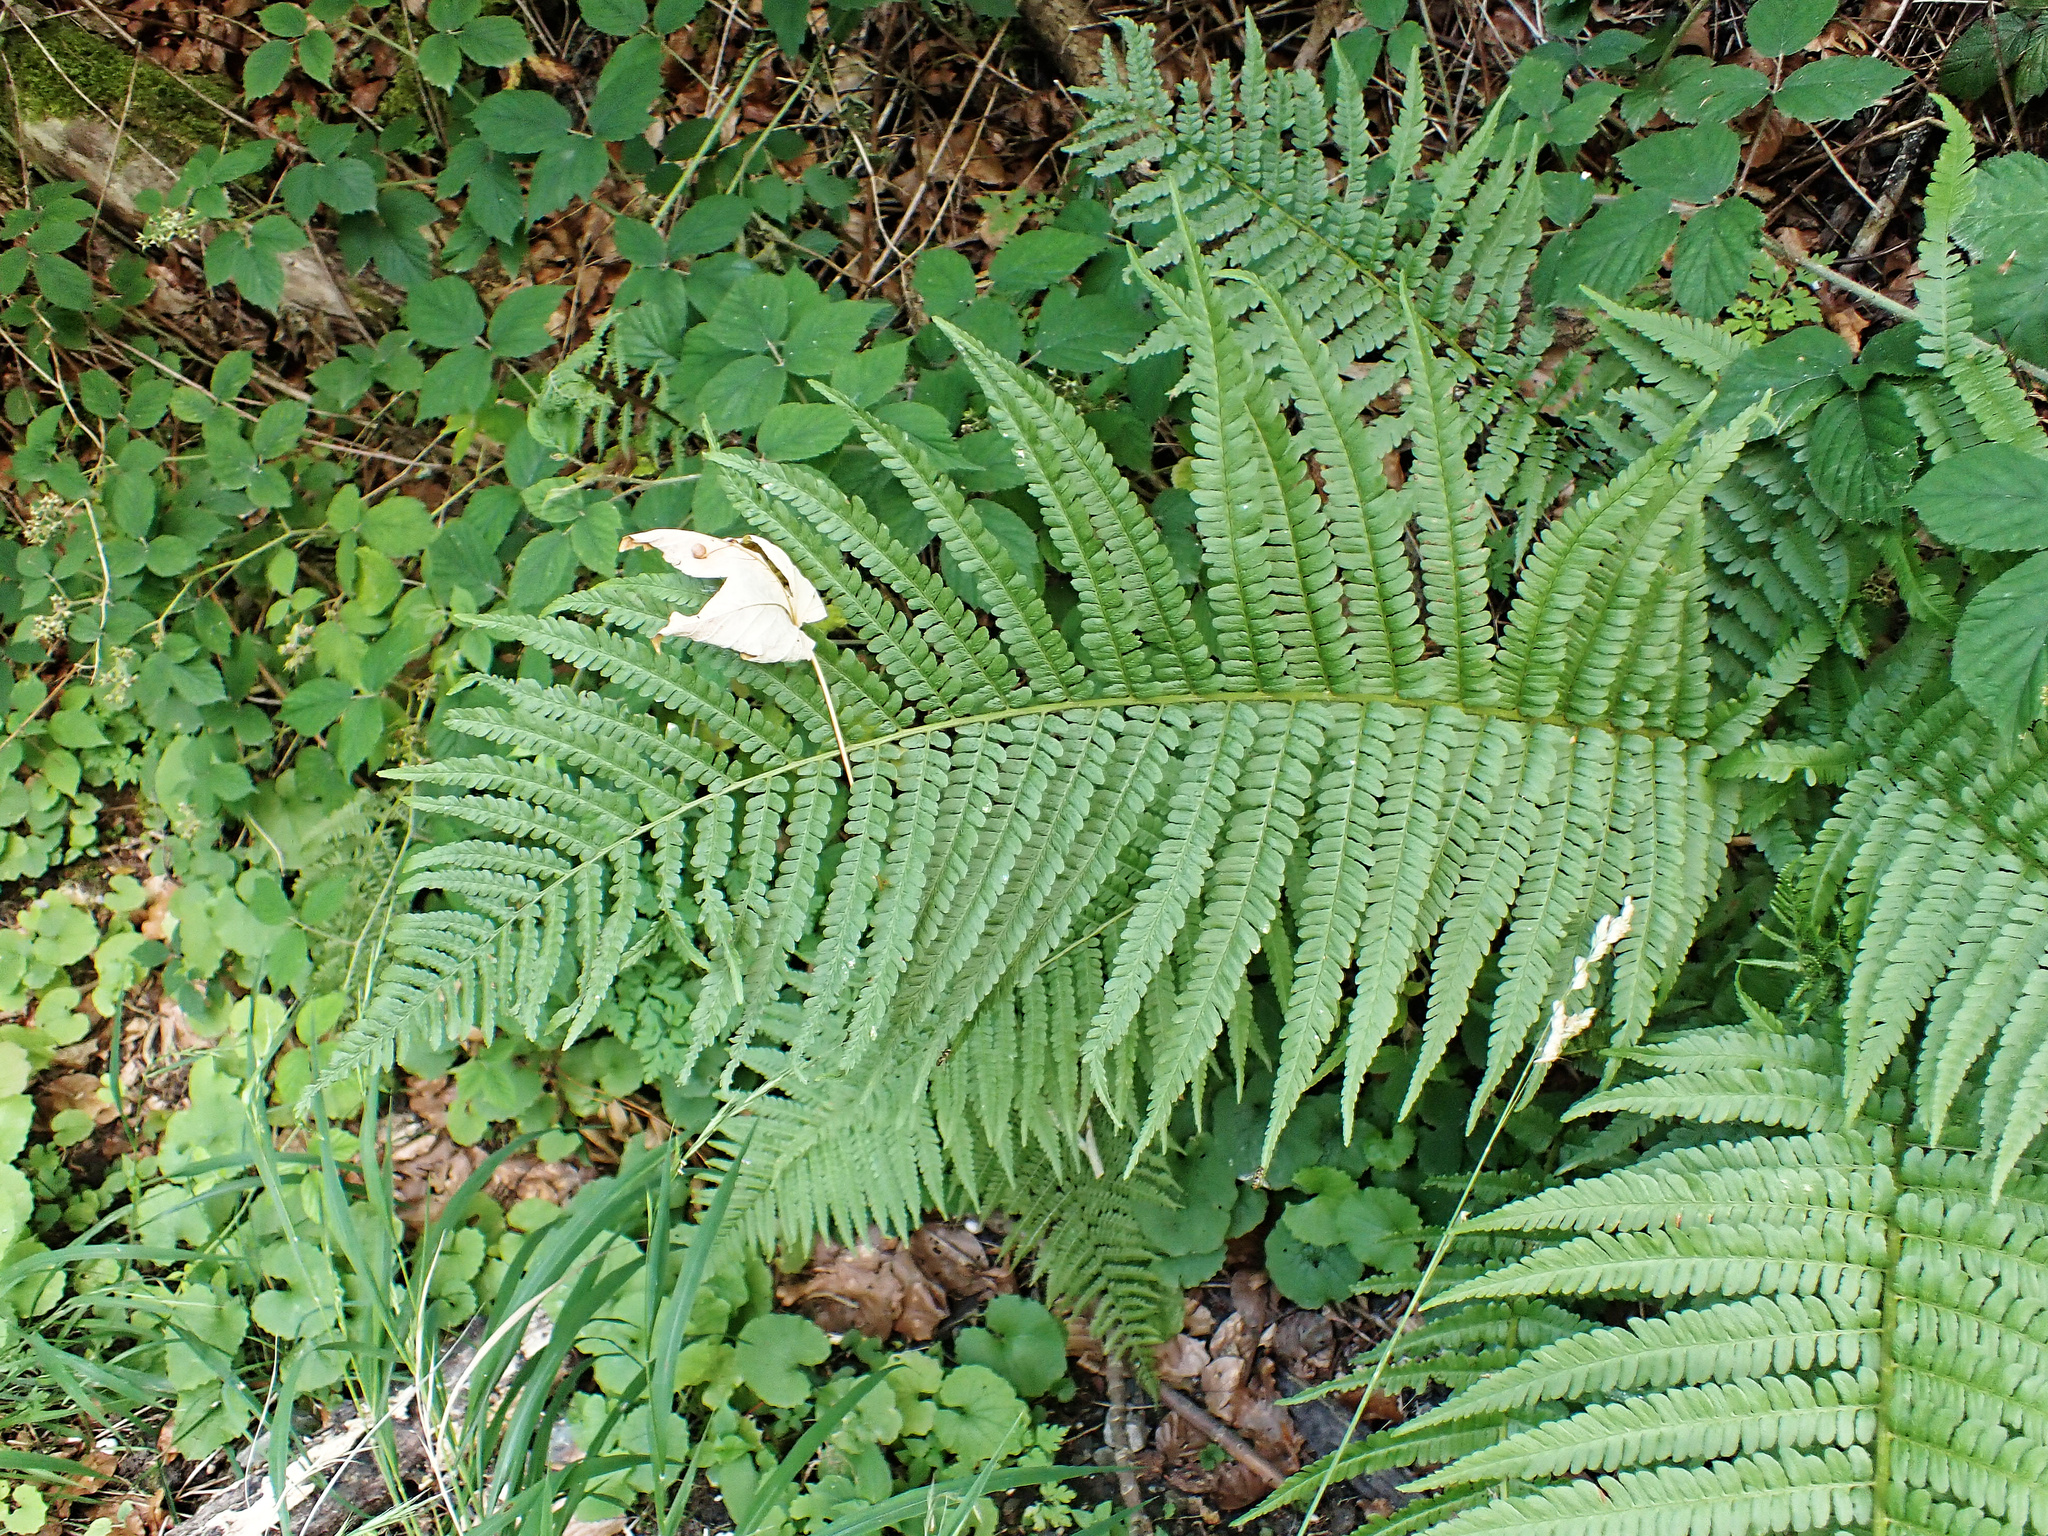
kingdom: Plantae
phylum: Tracheophyta
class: Polypodiopsida
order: Polypodiales
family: Dryopteridaceae
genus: Dryopteris
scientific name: Dryopteris filix-mas
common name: Male fern
